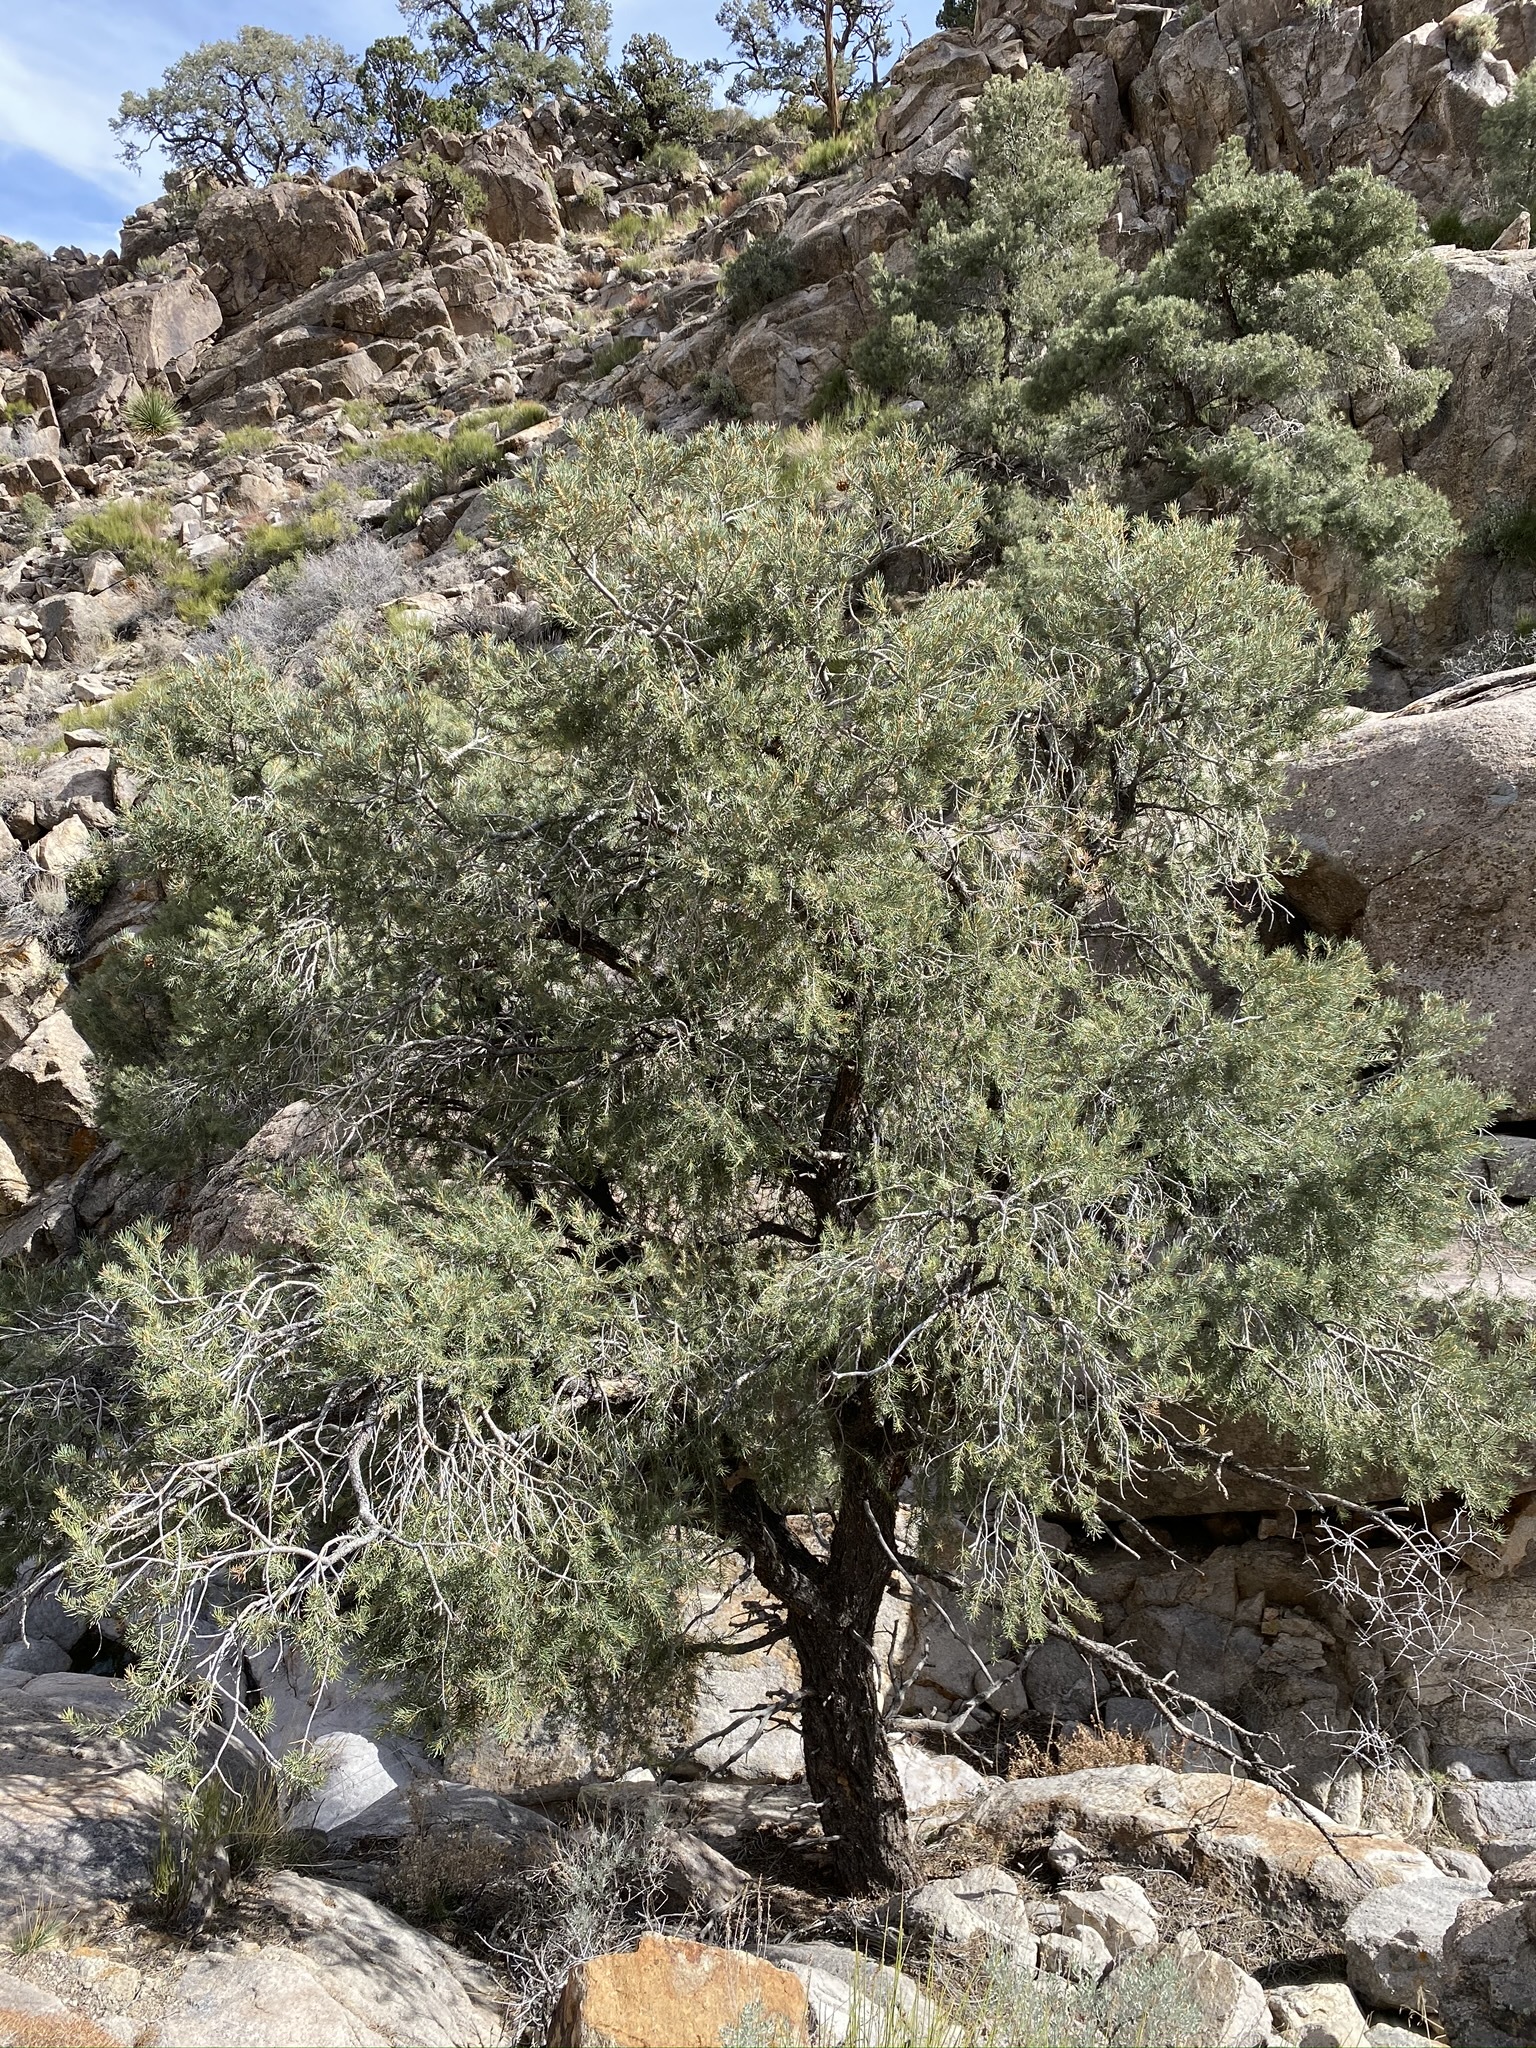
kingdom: Plantae
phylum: Tracheophyta
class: Pinopsida
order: Pinales
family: Pinaceae
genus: Pinus
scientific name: Pinus monophylla
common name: One-leaved nut pine
